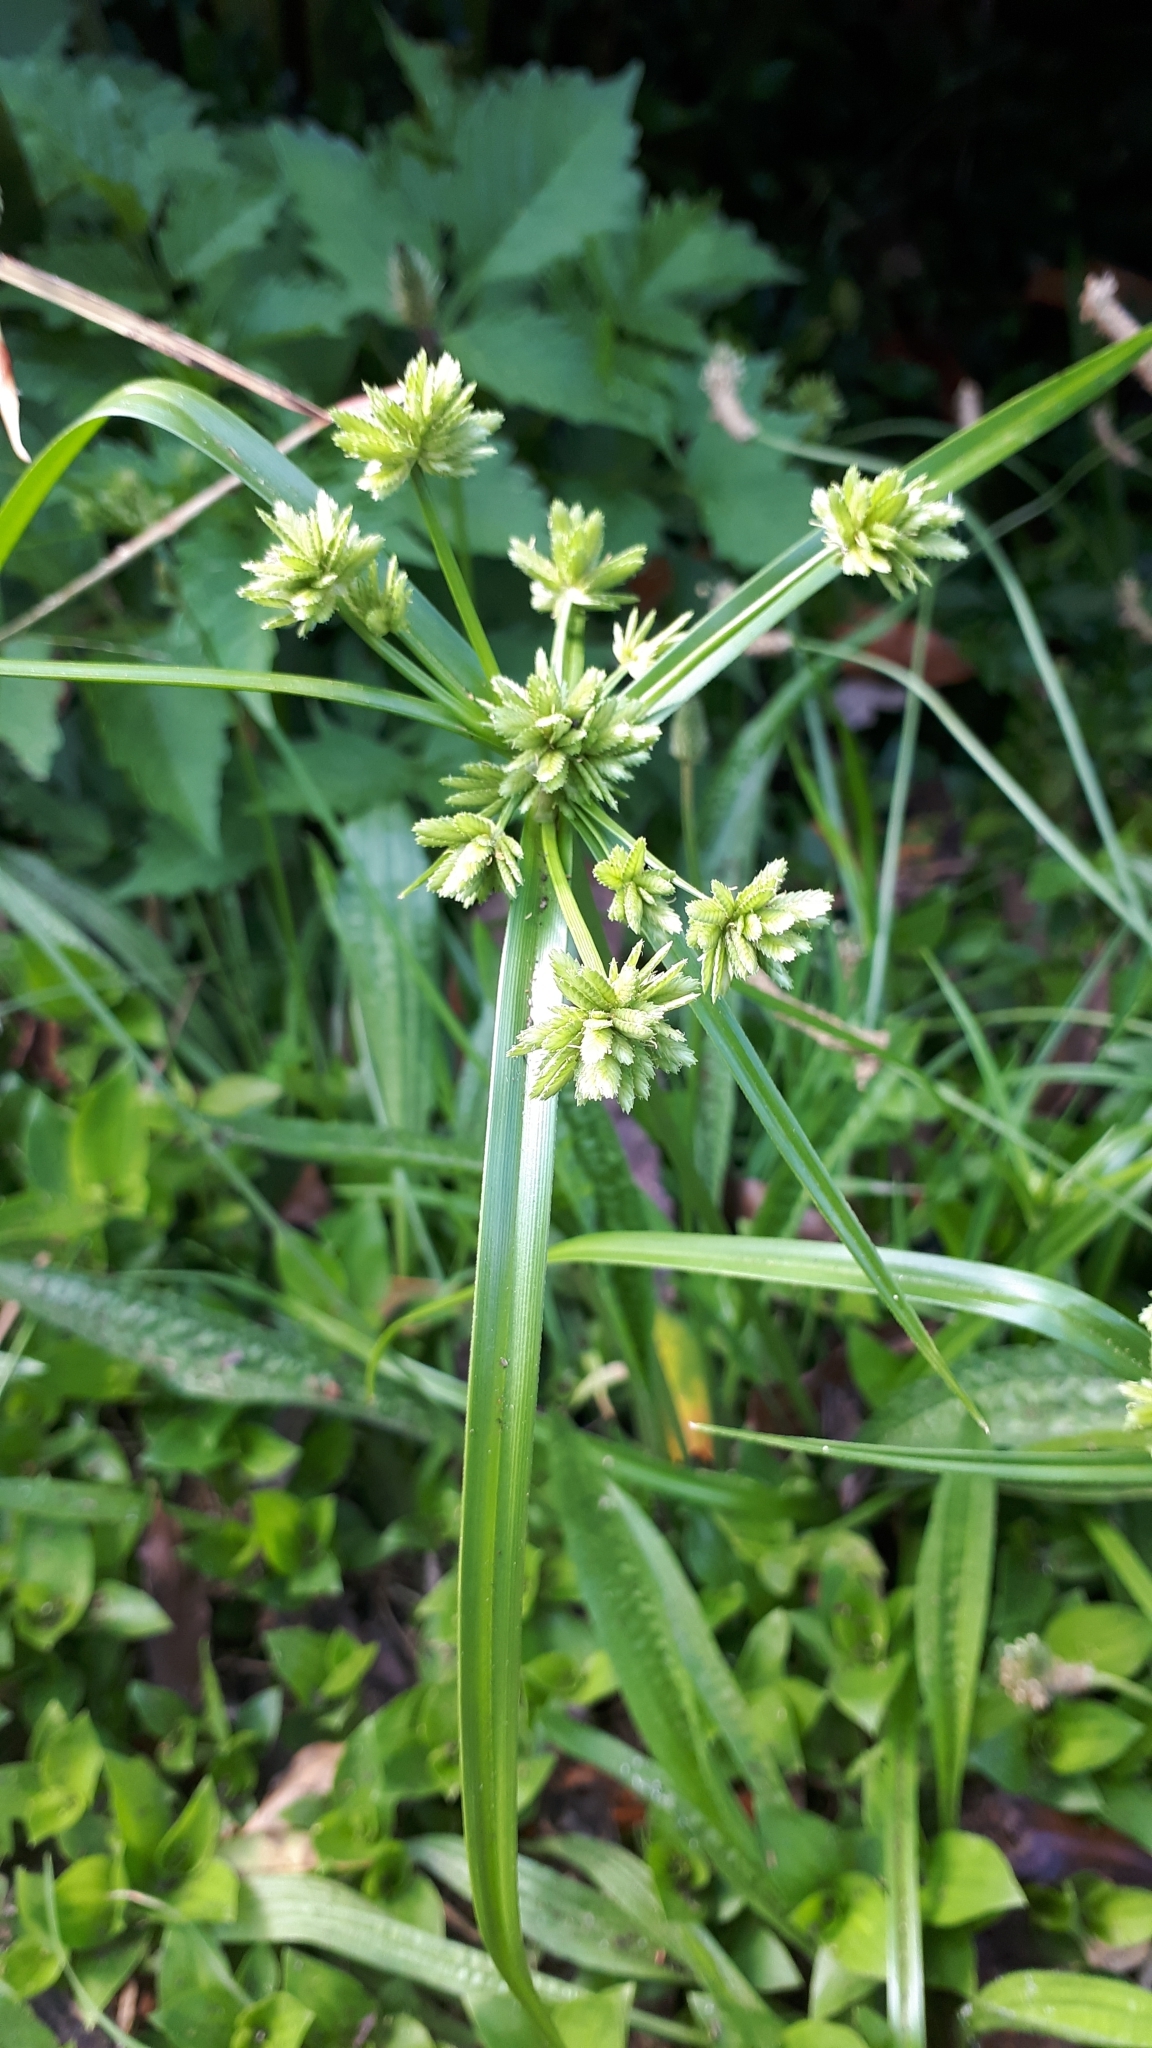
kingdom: Plantae
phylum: Tracheophyta
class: Liliopsida
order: Poales
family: Cyperaceae
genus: Cyperus
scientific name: Cyperus eragrostis
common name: Tall flatsedge
